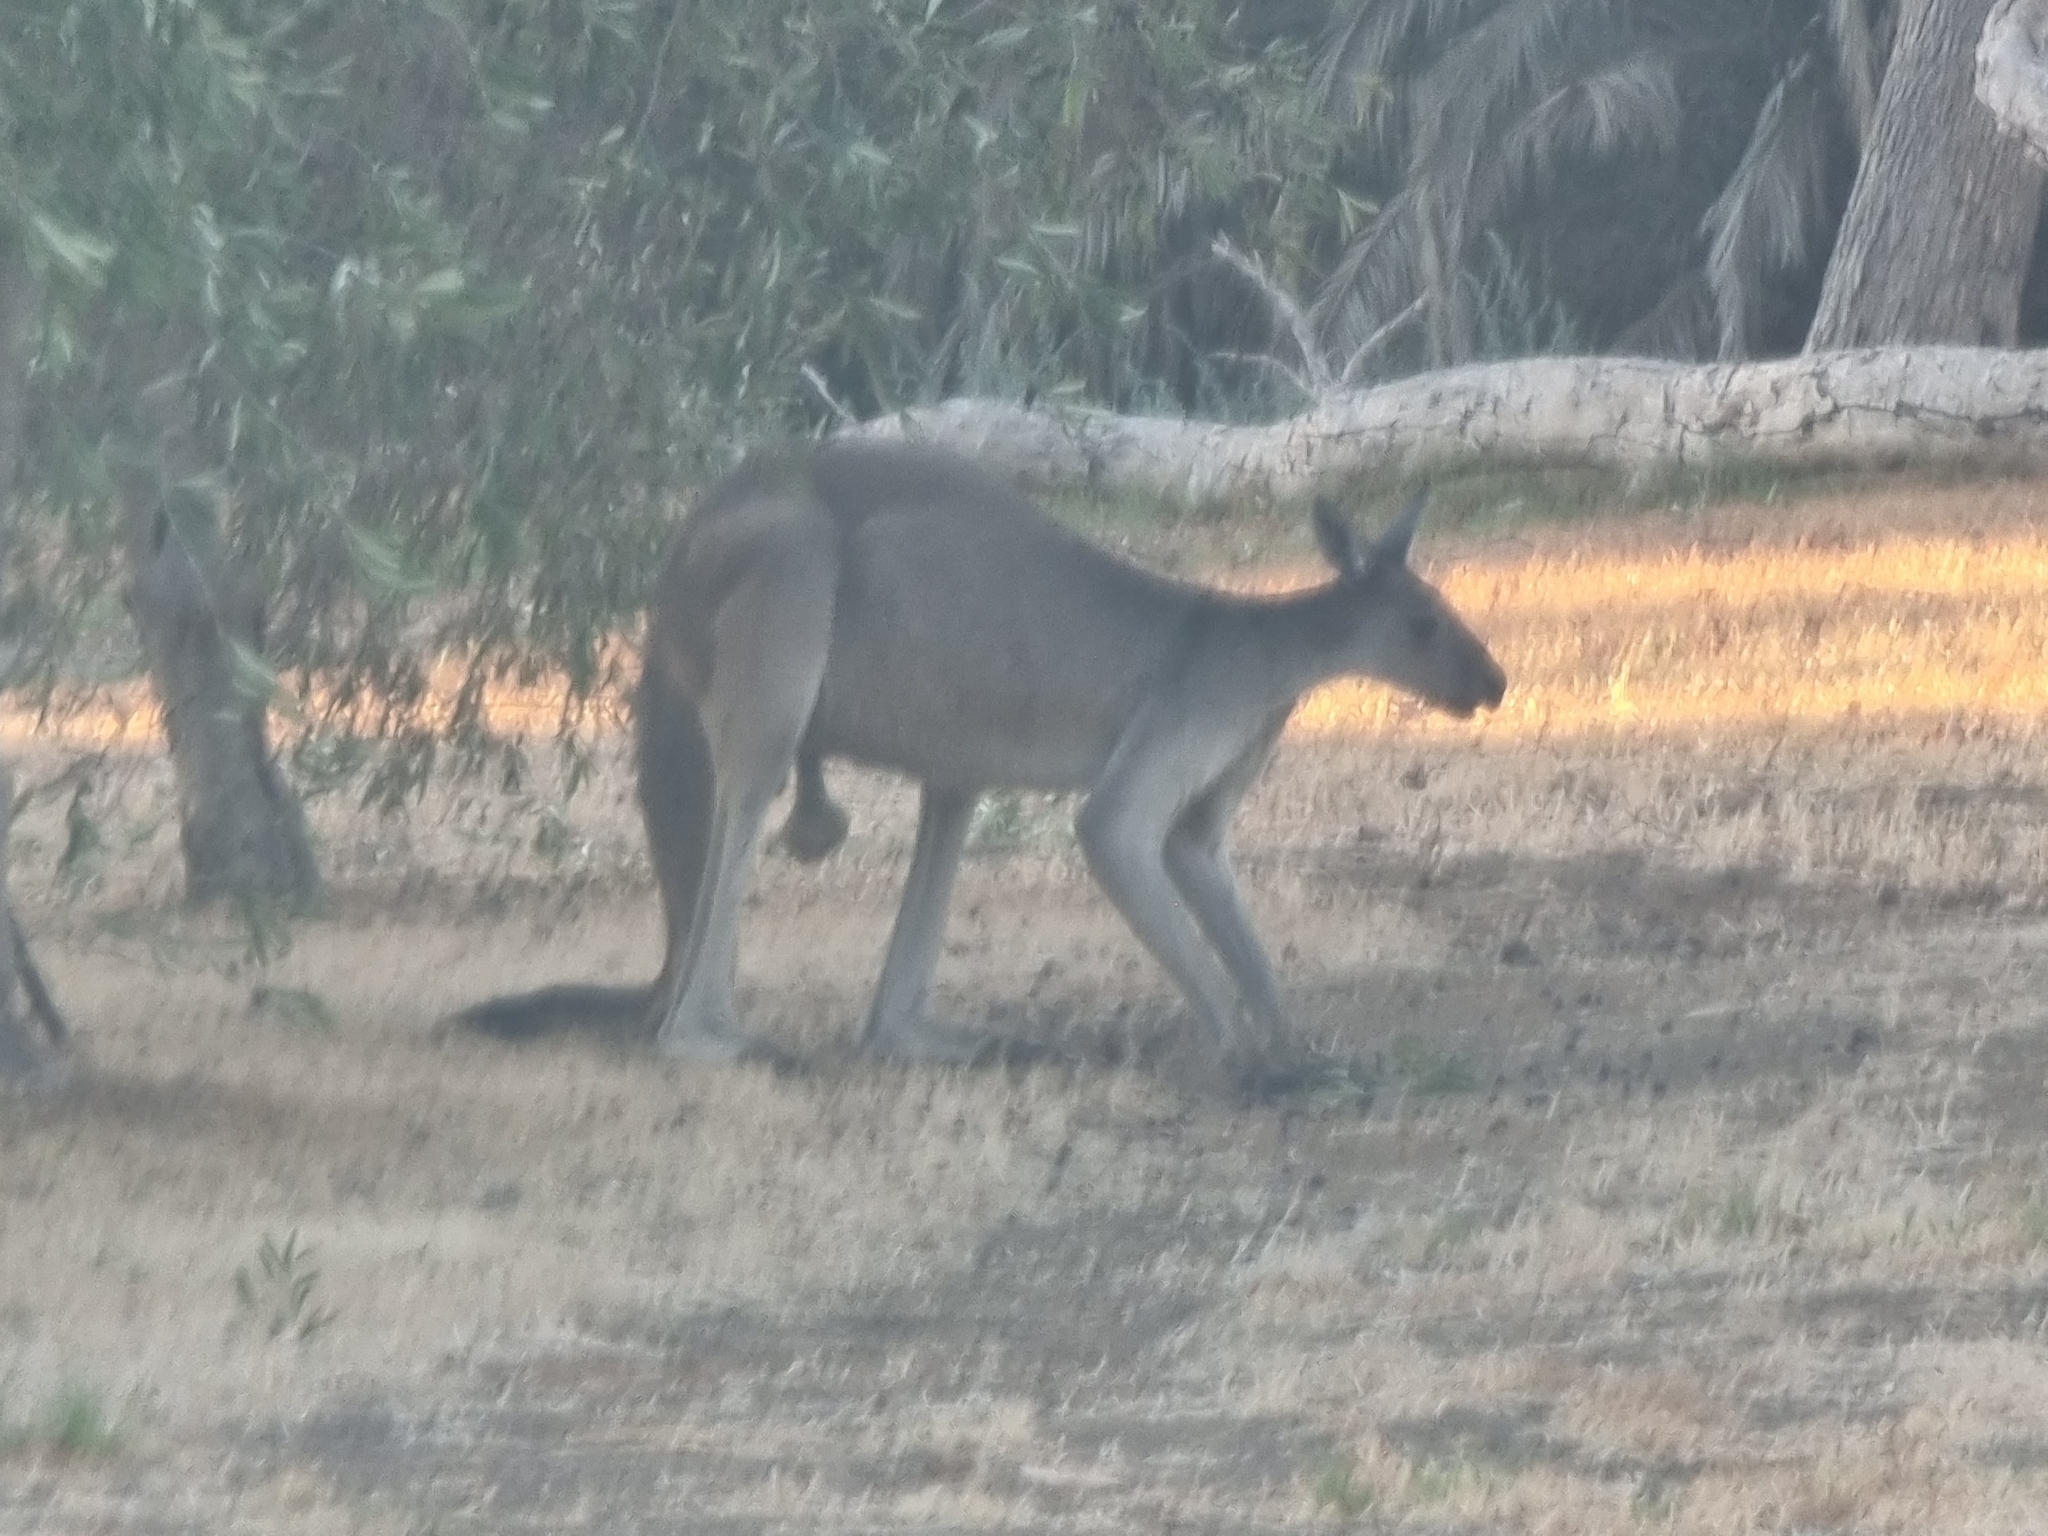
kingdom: Animalia
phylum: Chordata
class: Mammalia
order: Diprotodontia
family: Macropodidae
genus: Macropus
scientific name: Macropus fuliginosus
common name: Western grey kangaroo
